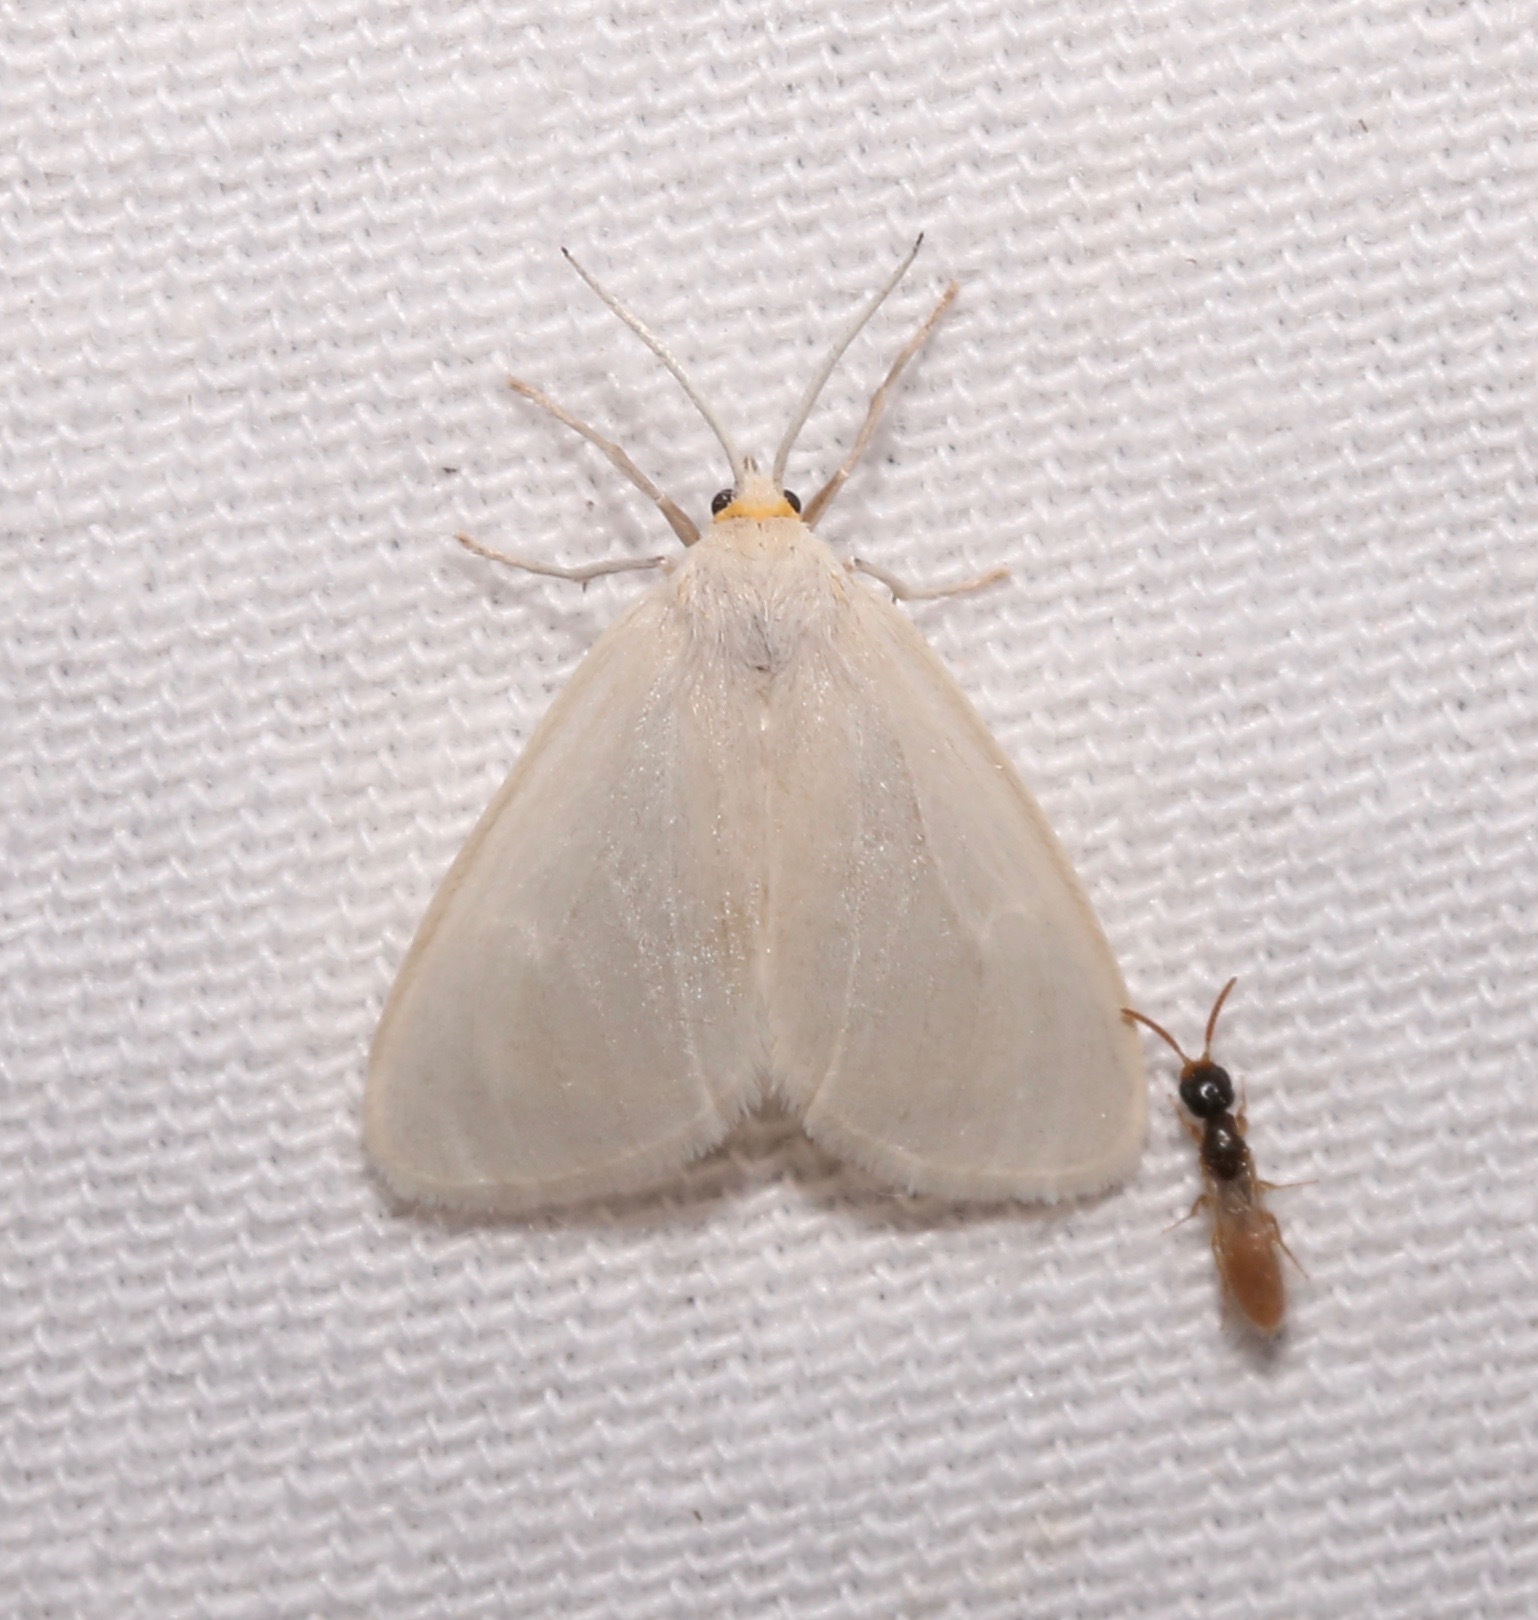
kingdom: Animalia
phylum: Arthropoda
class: Insecta
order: Lepidoptera
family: Erebidae
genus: Neoplynes
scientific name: Neoplynes eudora
